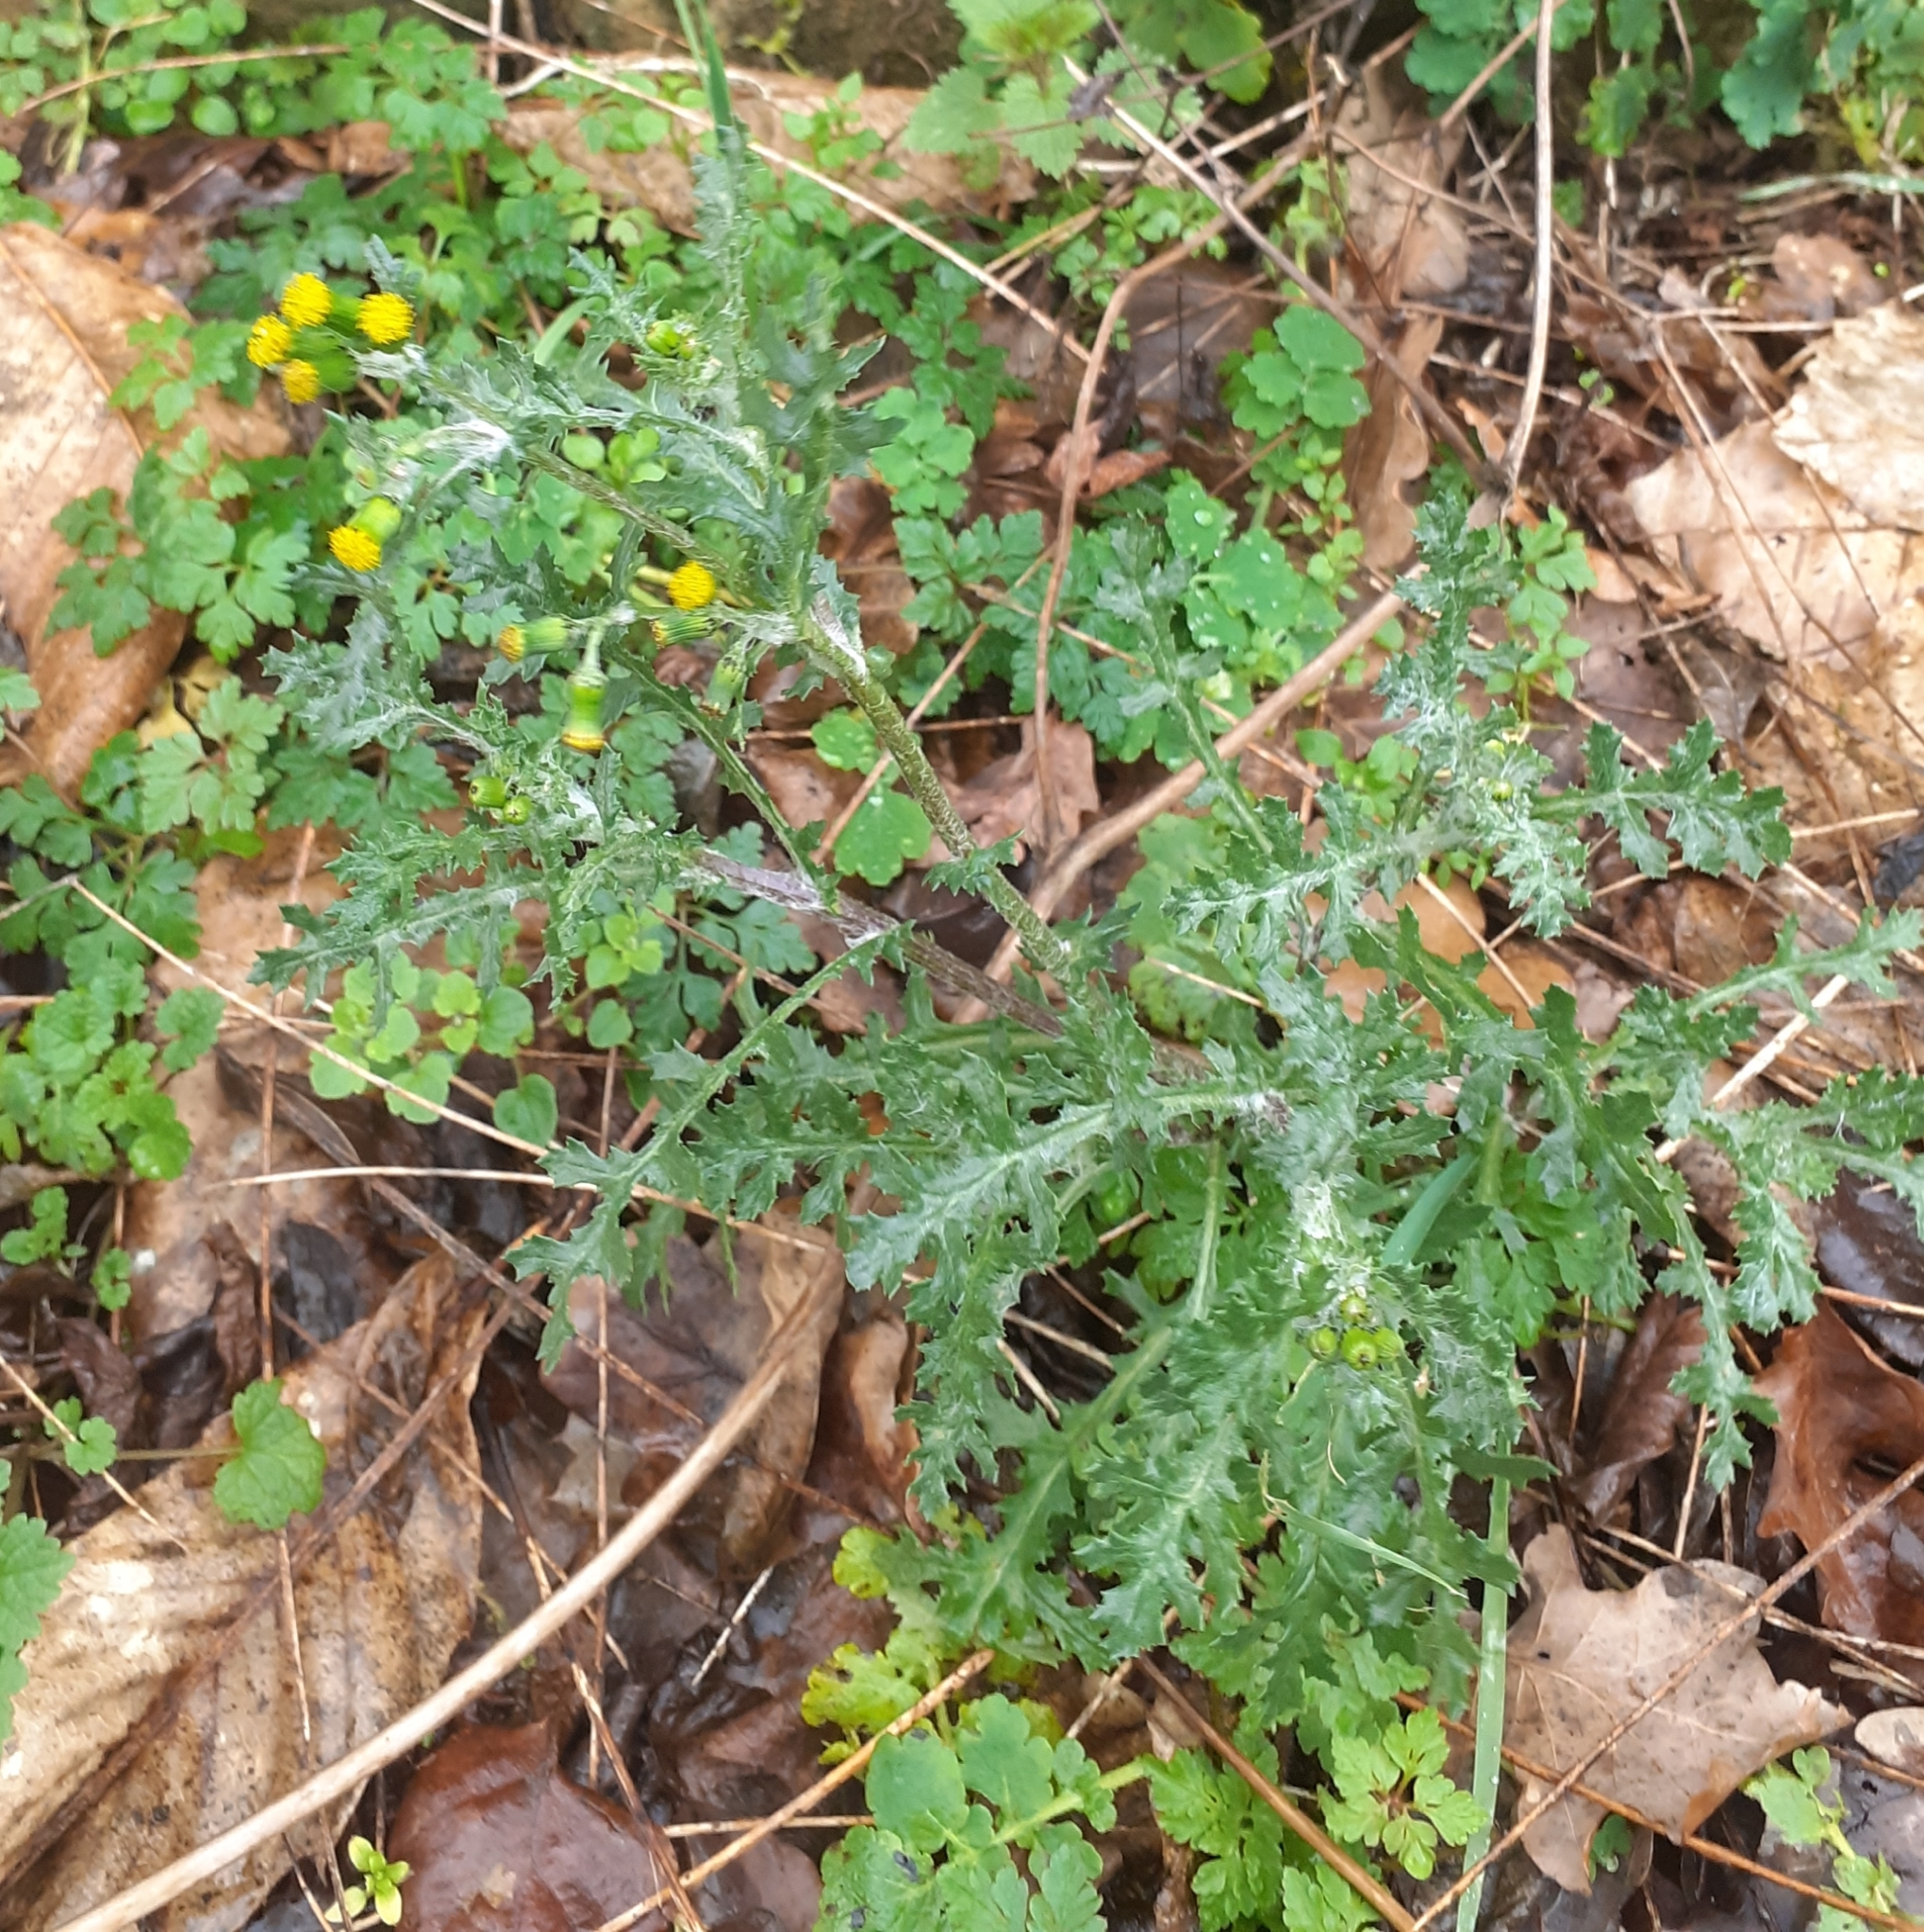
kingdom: Plantae
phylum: Tracheophyta
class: Magnoliopsida
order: Asterales
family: Asteraceae
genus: Senecio
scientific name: Senecio vulgaris
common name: Old-man-in-the-spring
